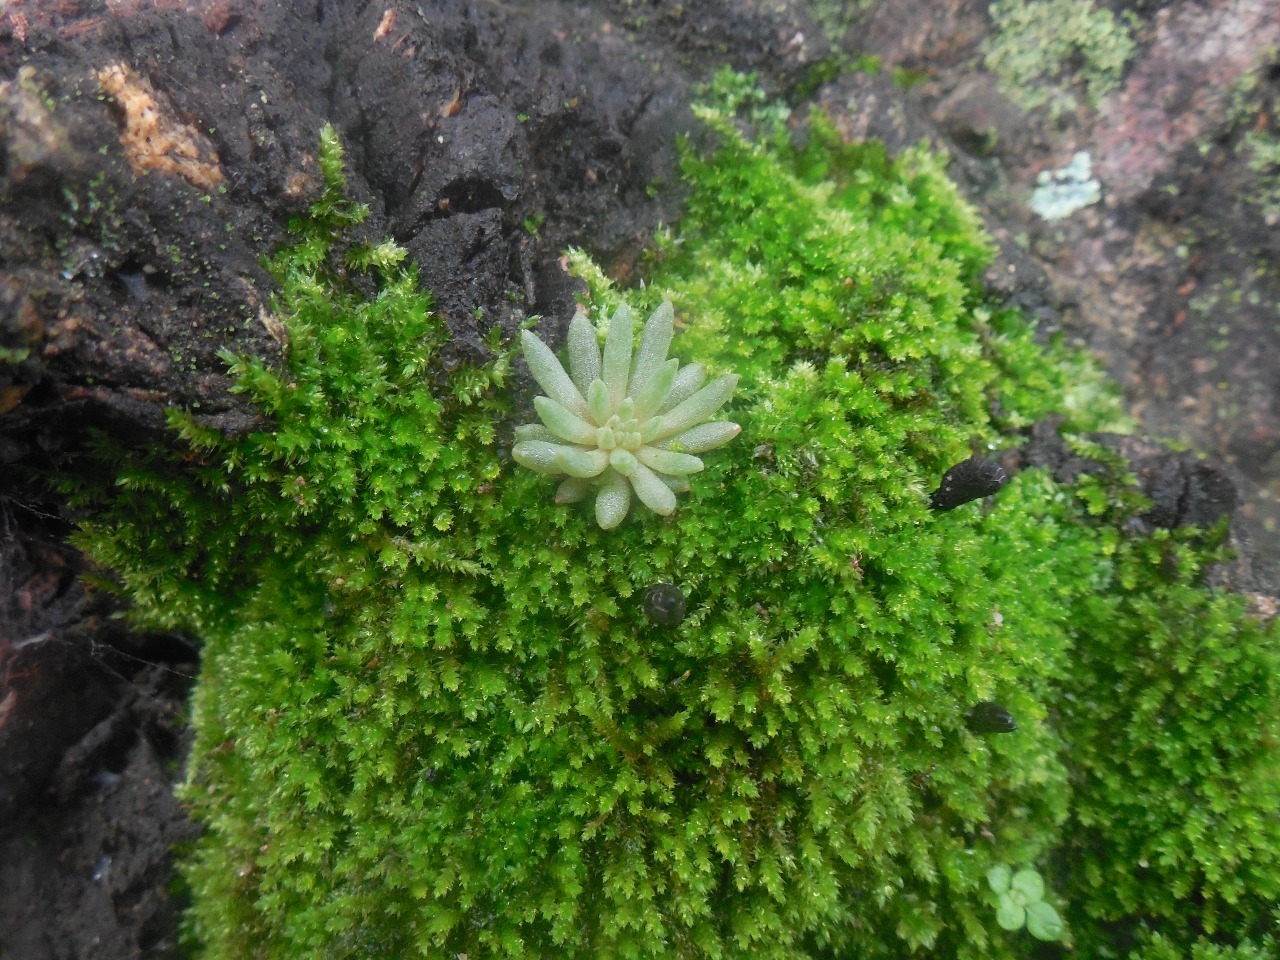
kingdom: Plantae
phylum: Tracheophyta
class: Magnoliopsida
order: Saxifragales
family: Crassulaceae
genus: Villadia
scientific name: Villadia misera
